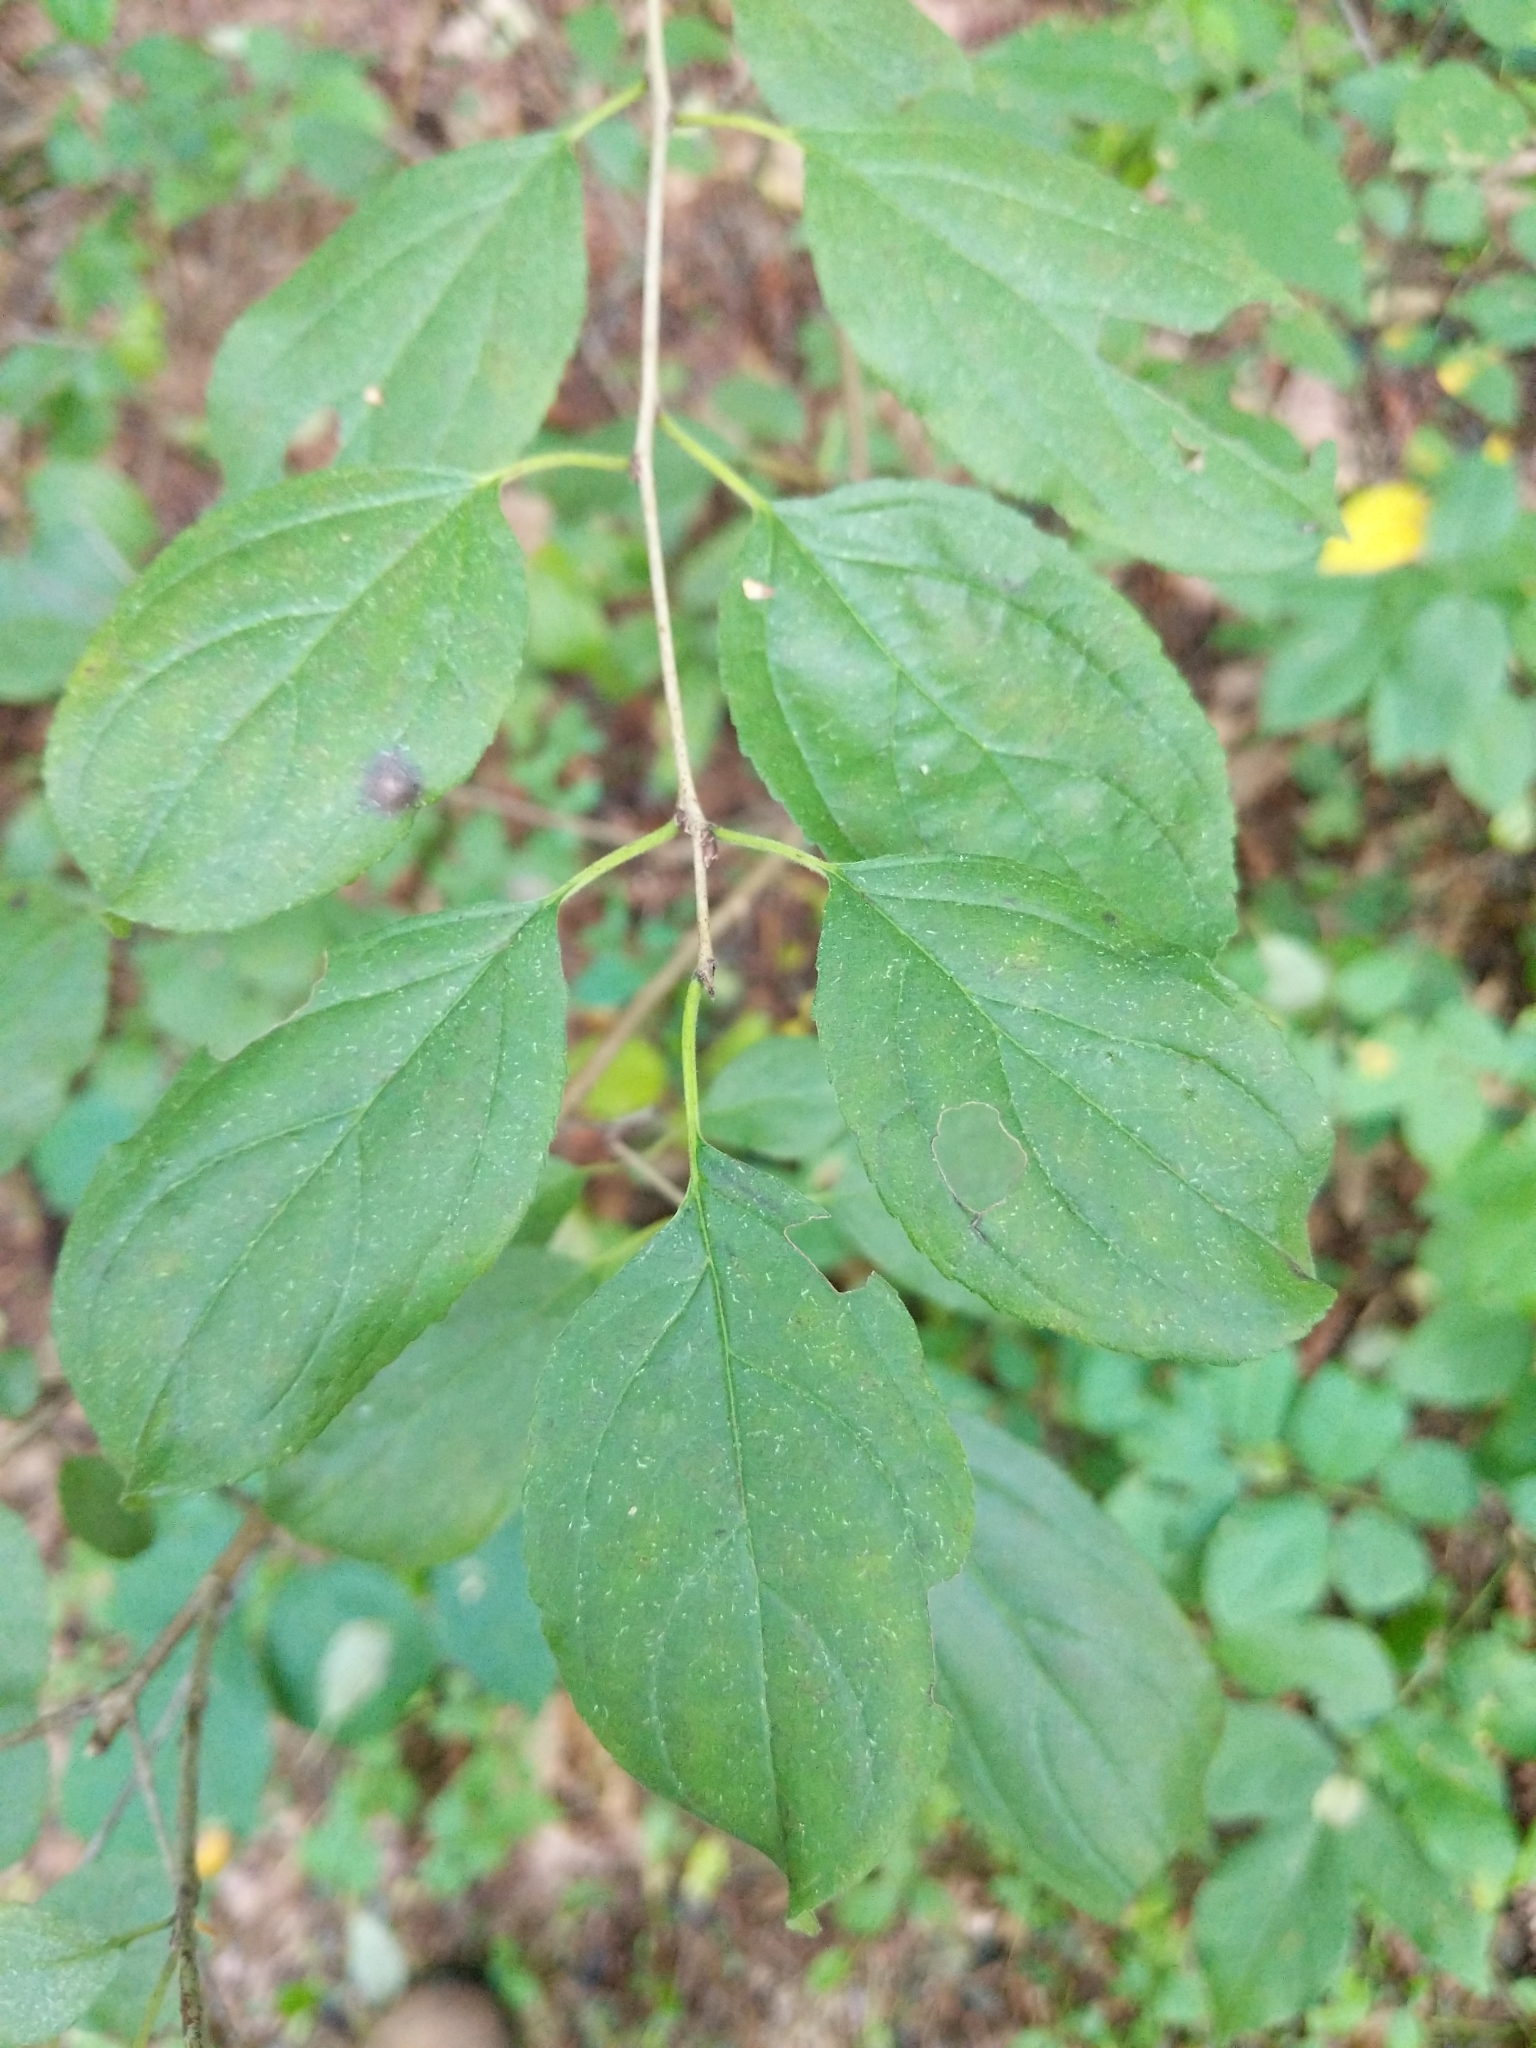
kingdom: Plantae
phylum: Tracheophyta
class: Magnoliopsida
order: Rosales
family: Rhamnaceae
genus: Rhamnus
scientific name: Rhamnus cathartica
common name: Common buckthorn
